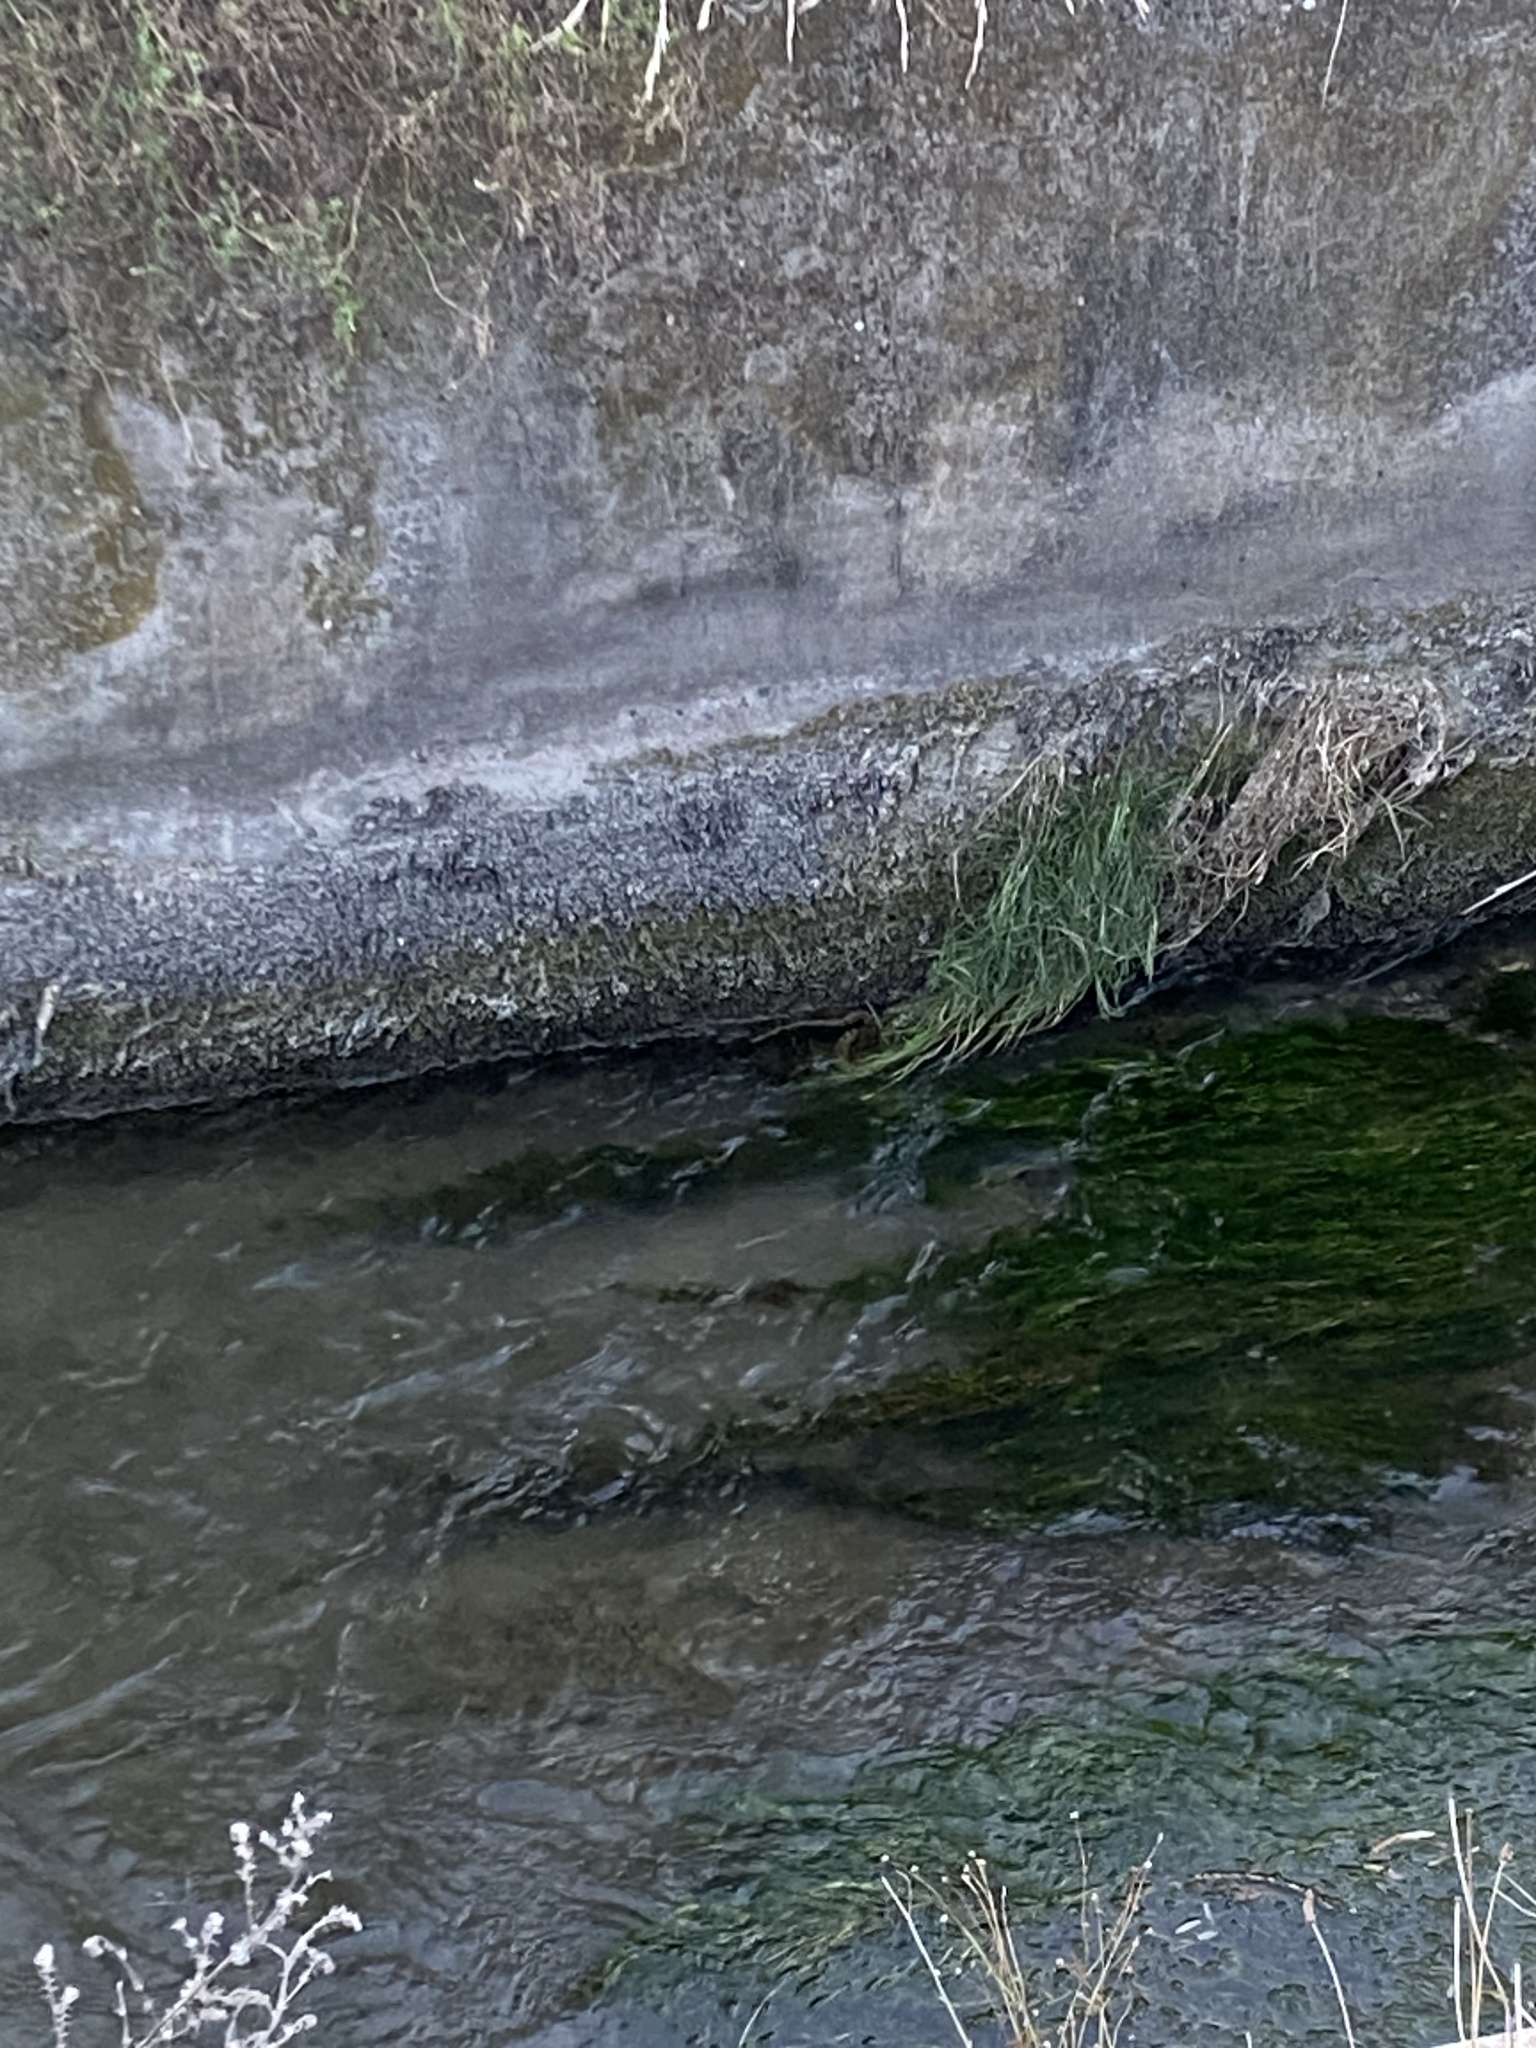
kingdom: Animalia
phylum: Chordata
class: Squamata
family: Colubridae
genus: Natrix
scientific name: Natrix maura
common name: Viperine water snake
